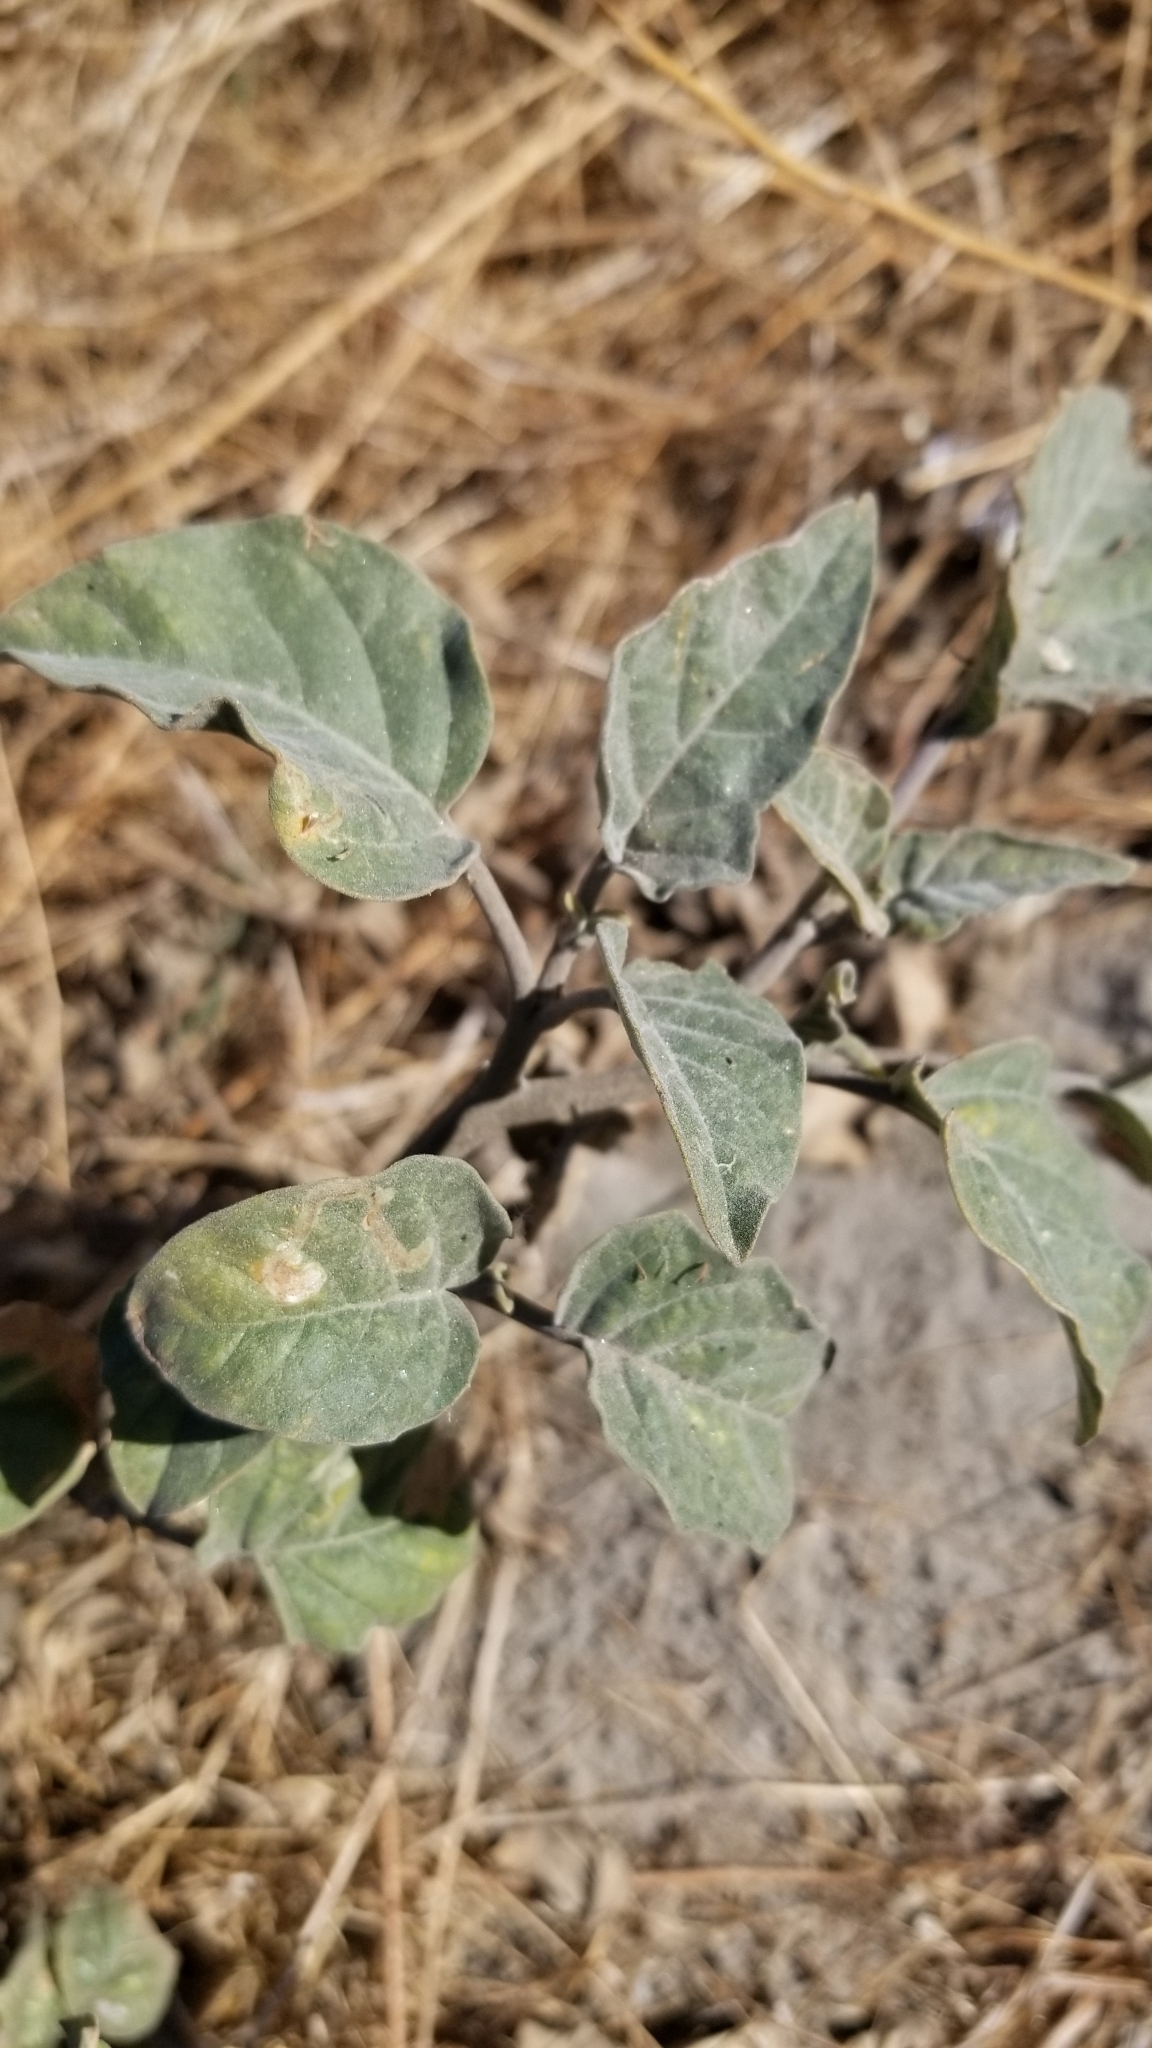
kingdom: Plantae
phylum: Tracheophyta
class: Magnoliopsida
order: Solanales
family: Solanaceae
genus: Datura
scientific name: Datura wrightii
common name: Sacred thorn-apple
